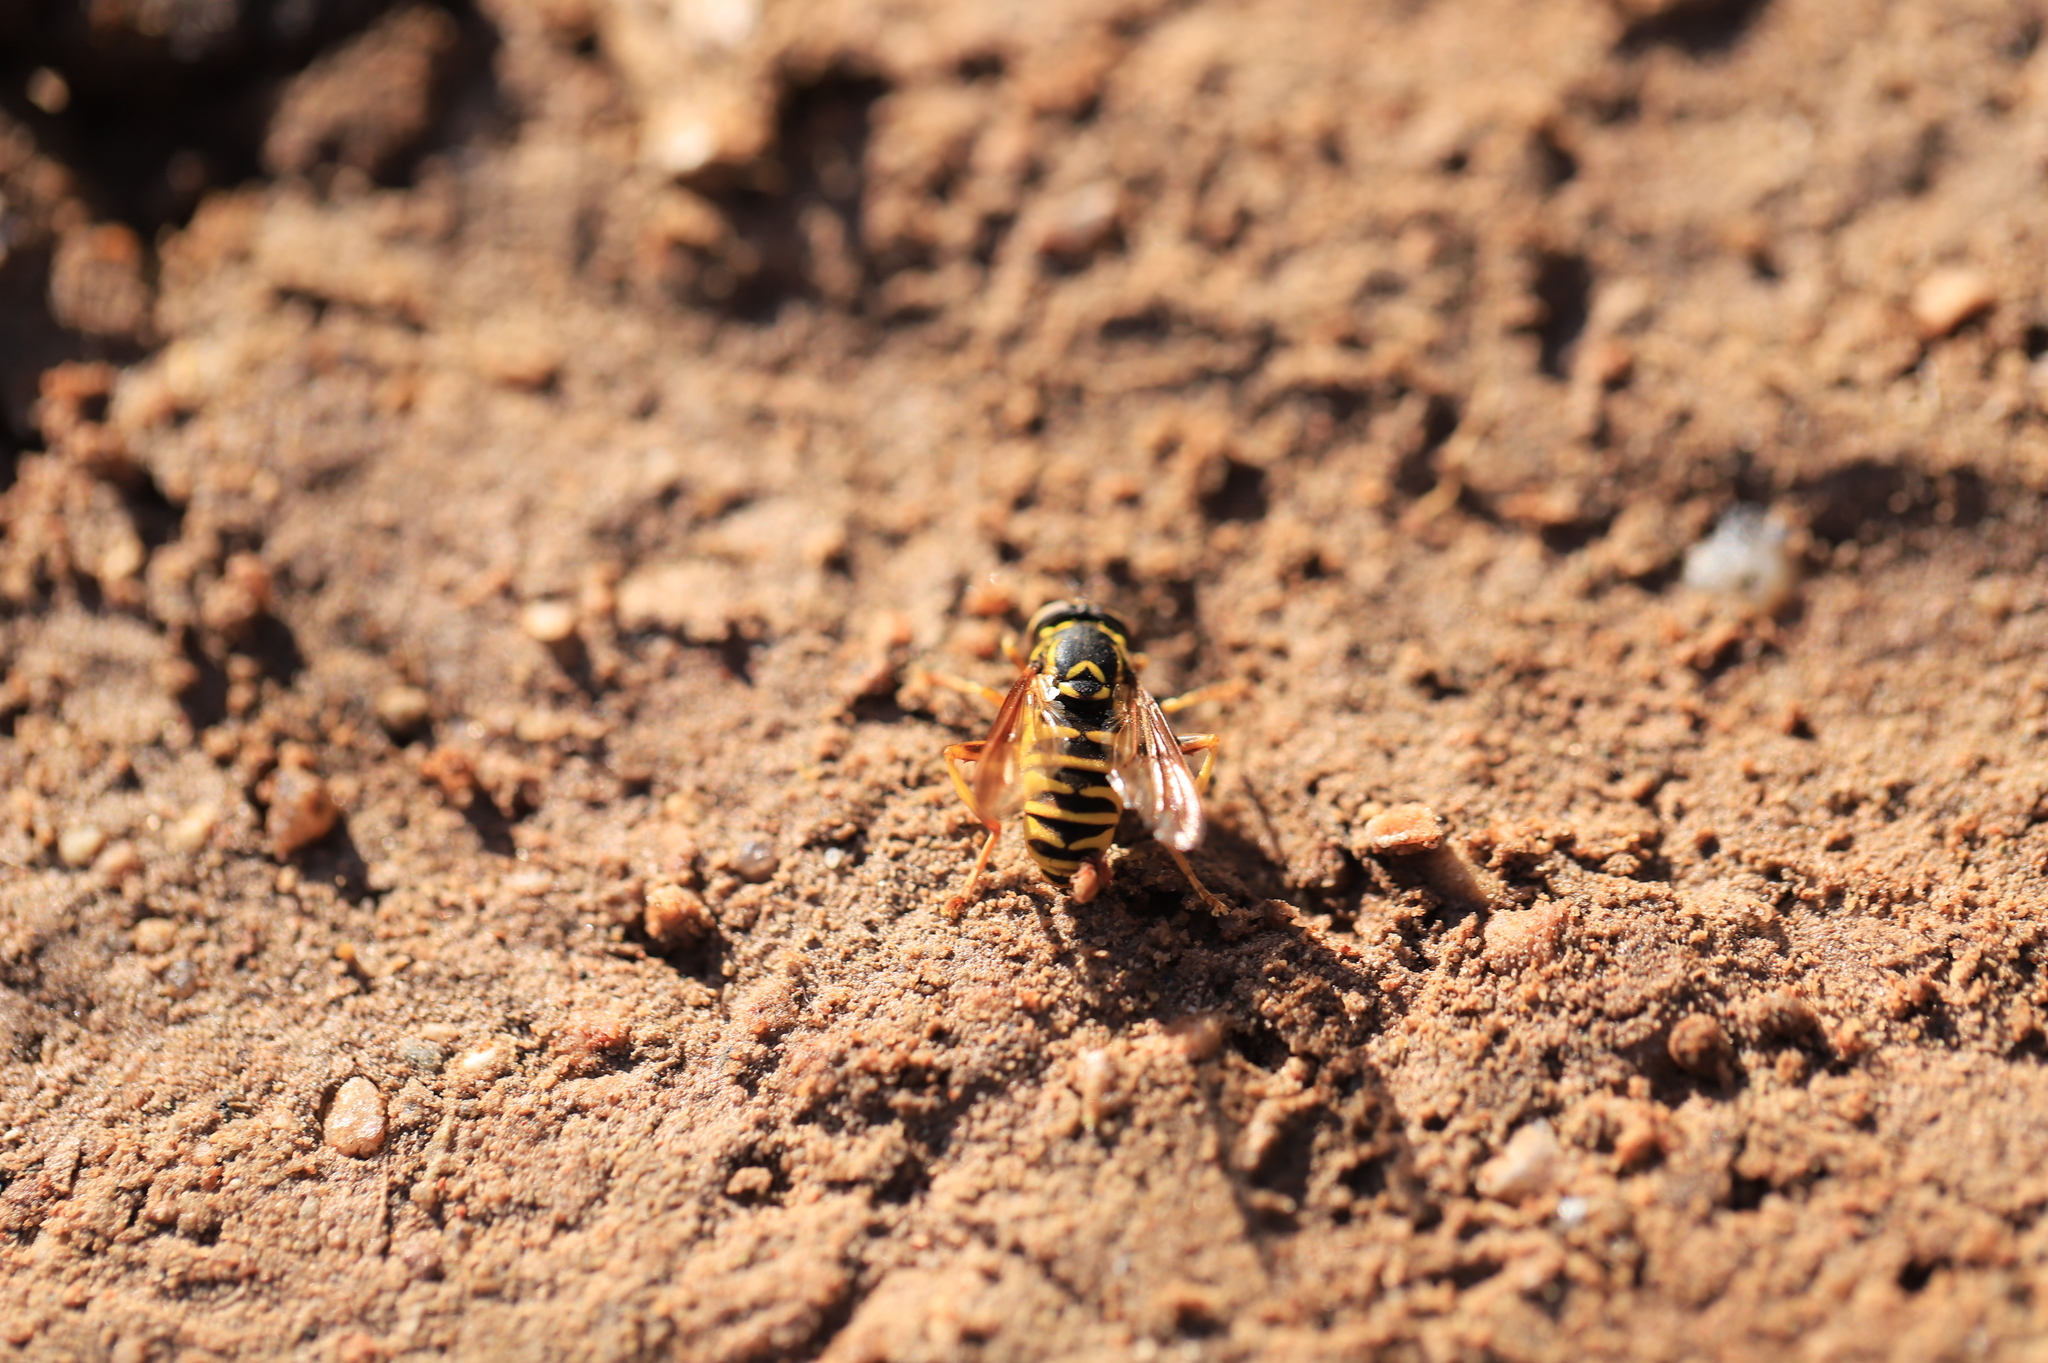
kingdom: Animalia
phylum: Arthropoda
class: Insecta
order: Diptera
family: Syrphidae
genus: Spilomyia
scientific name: Spilomyia liturata
